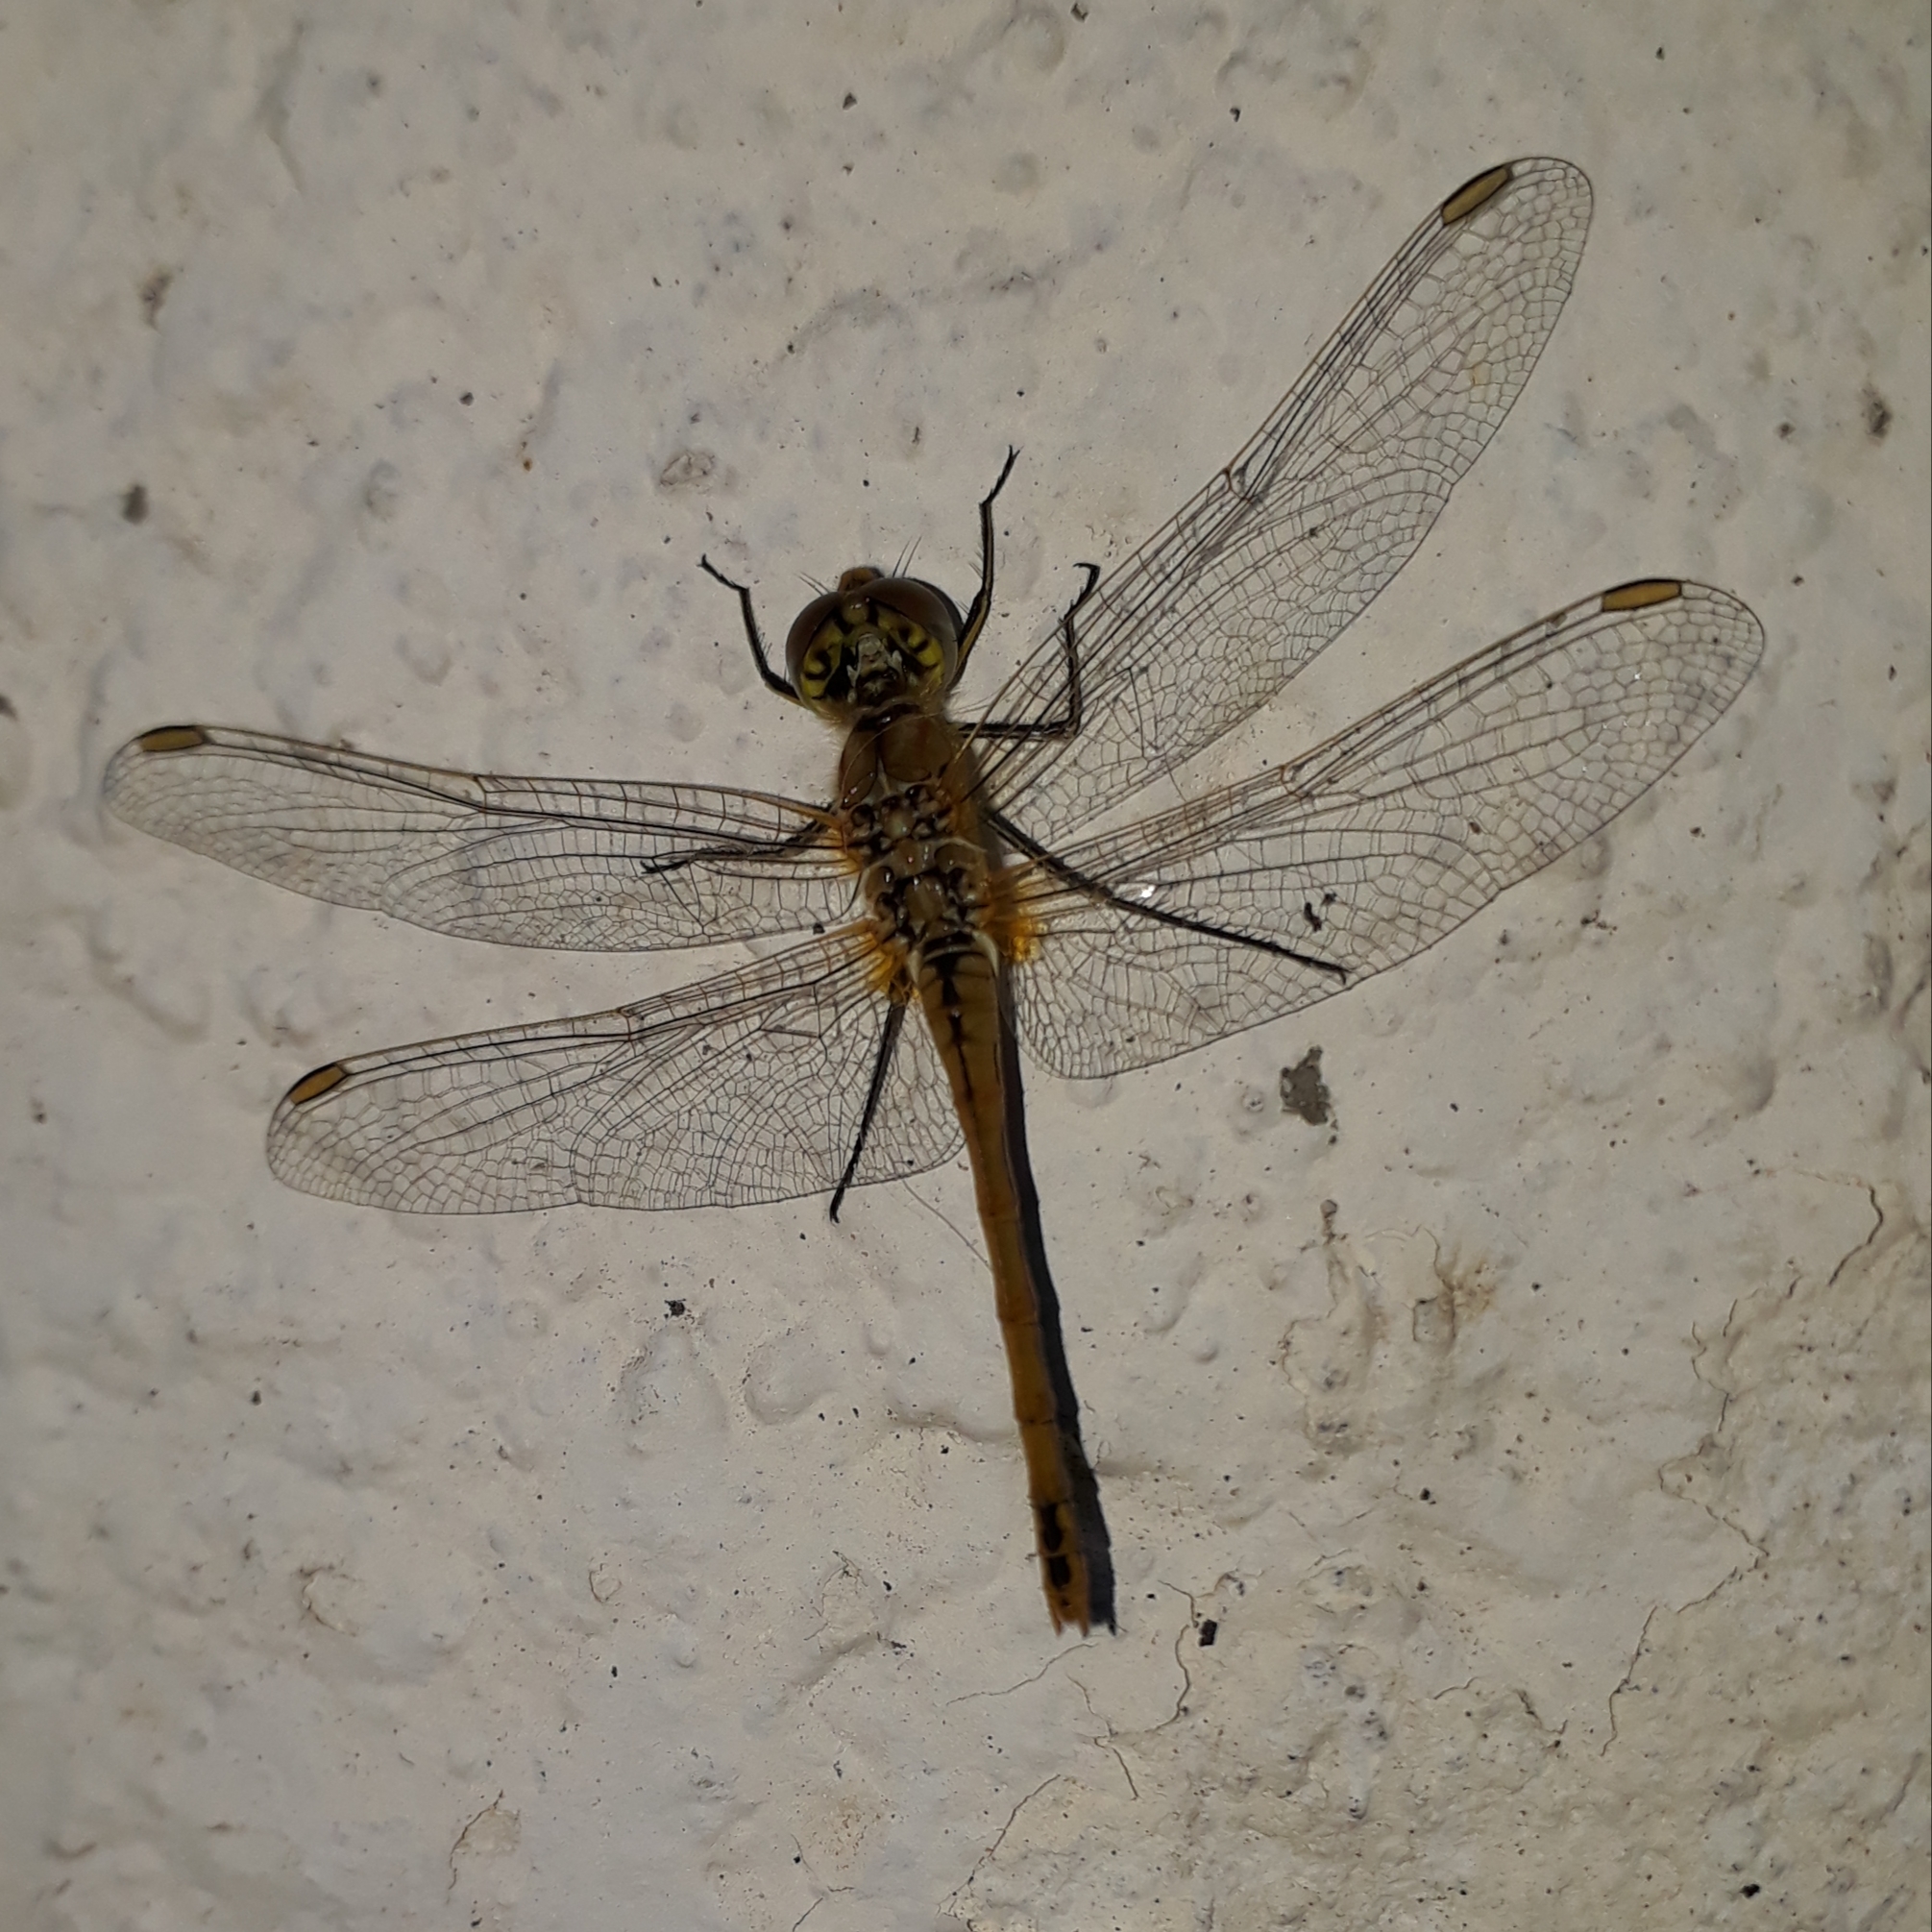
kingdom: Animalia
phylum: Arthropoda
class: Insecta
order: Odonata
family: Libellulidae
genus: Sympetrum
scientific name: Sympetrum fonscolombii
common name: Red-veined darter
